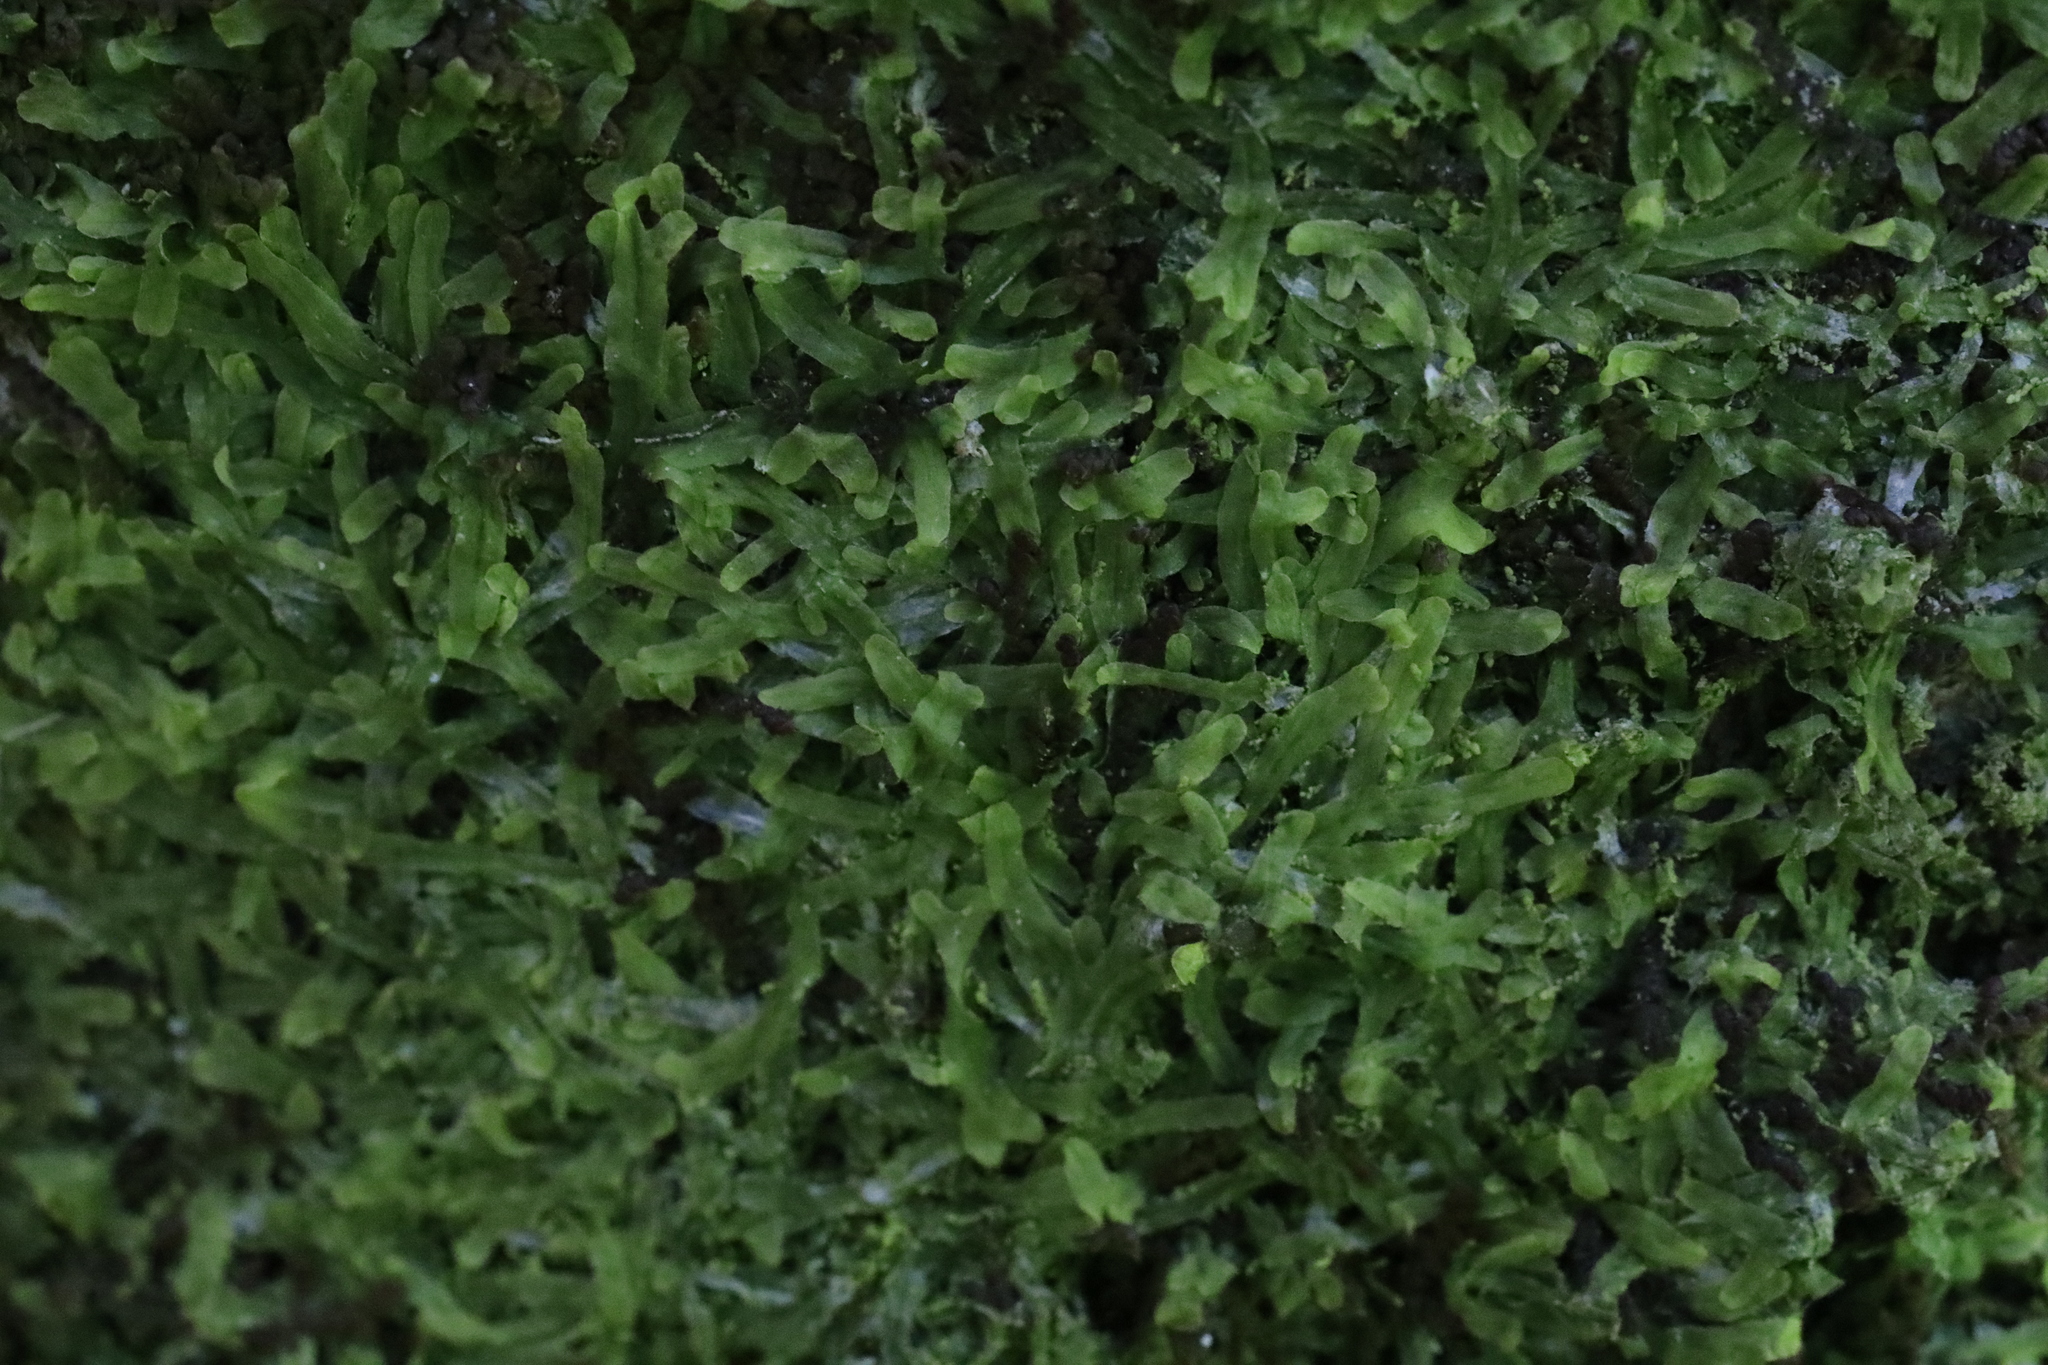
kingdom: Plantae
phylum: Marchantiophyta
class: Jungermanniopsida
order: Metzgeriales
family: Metzgeriaceae
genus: Metzgeria
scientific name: Metzgeria furcata
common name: Forked veilwort
